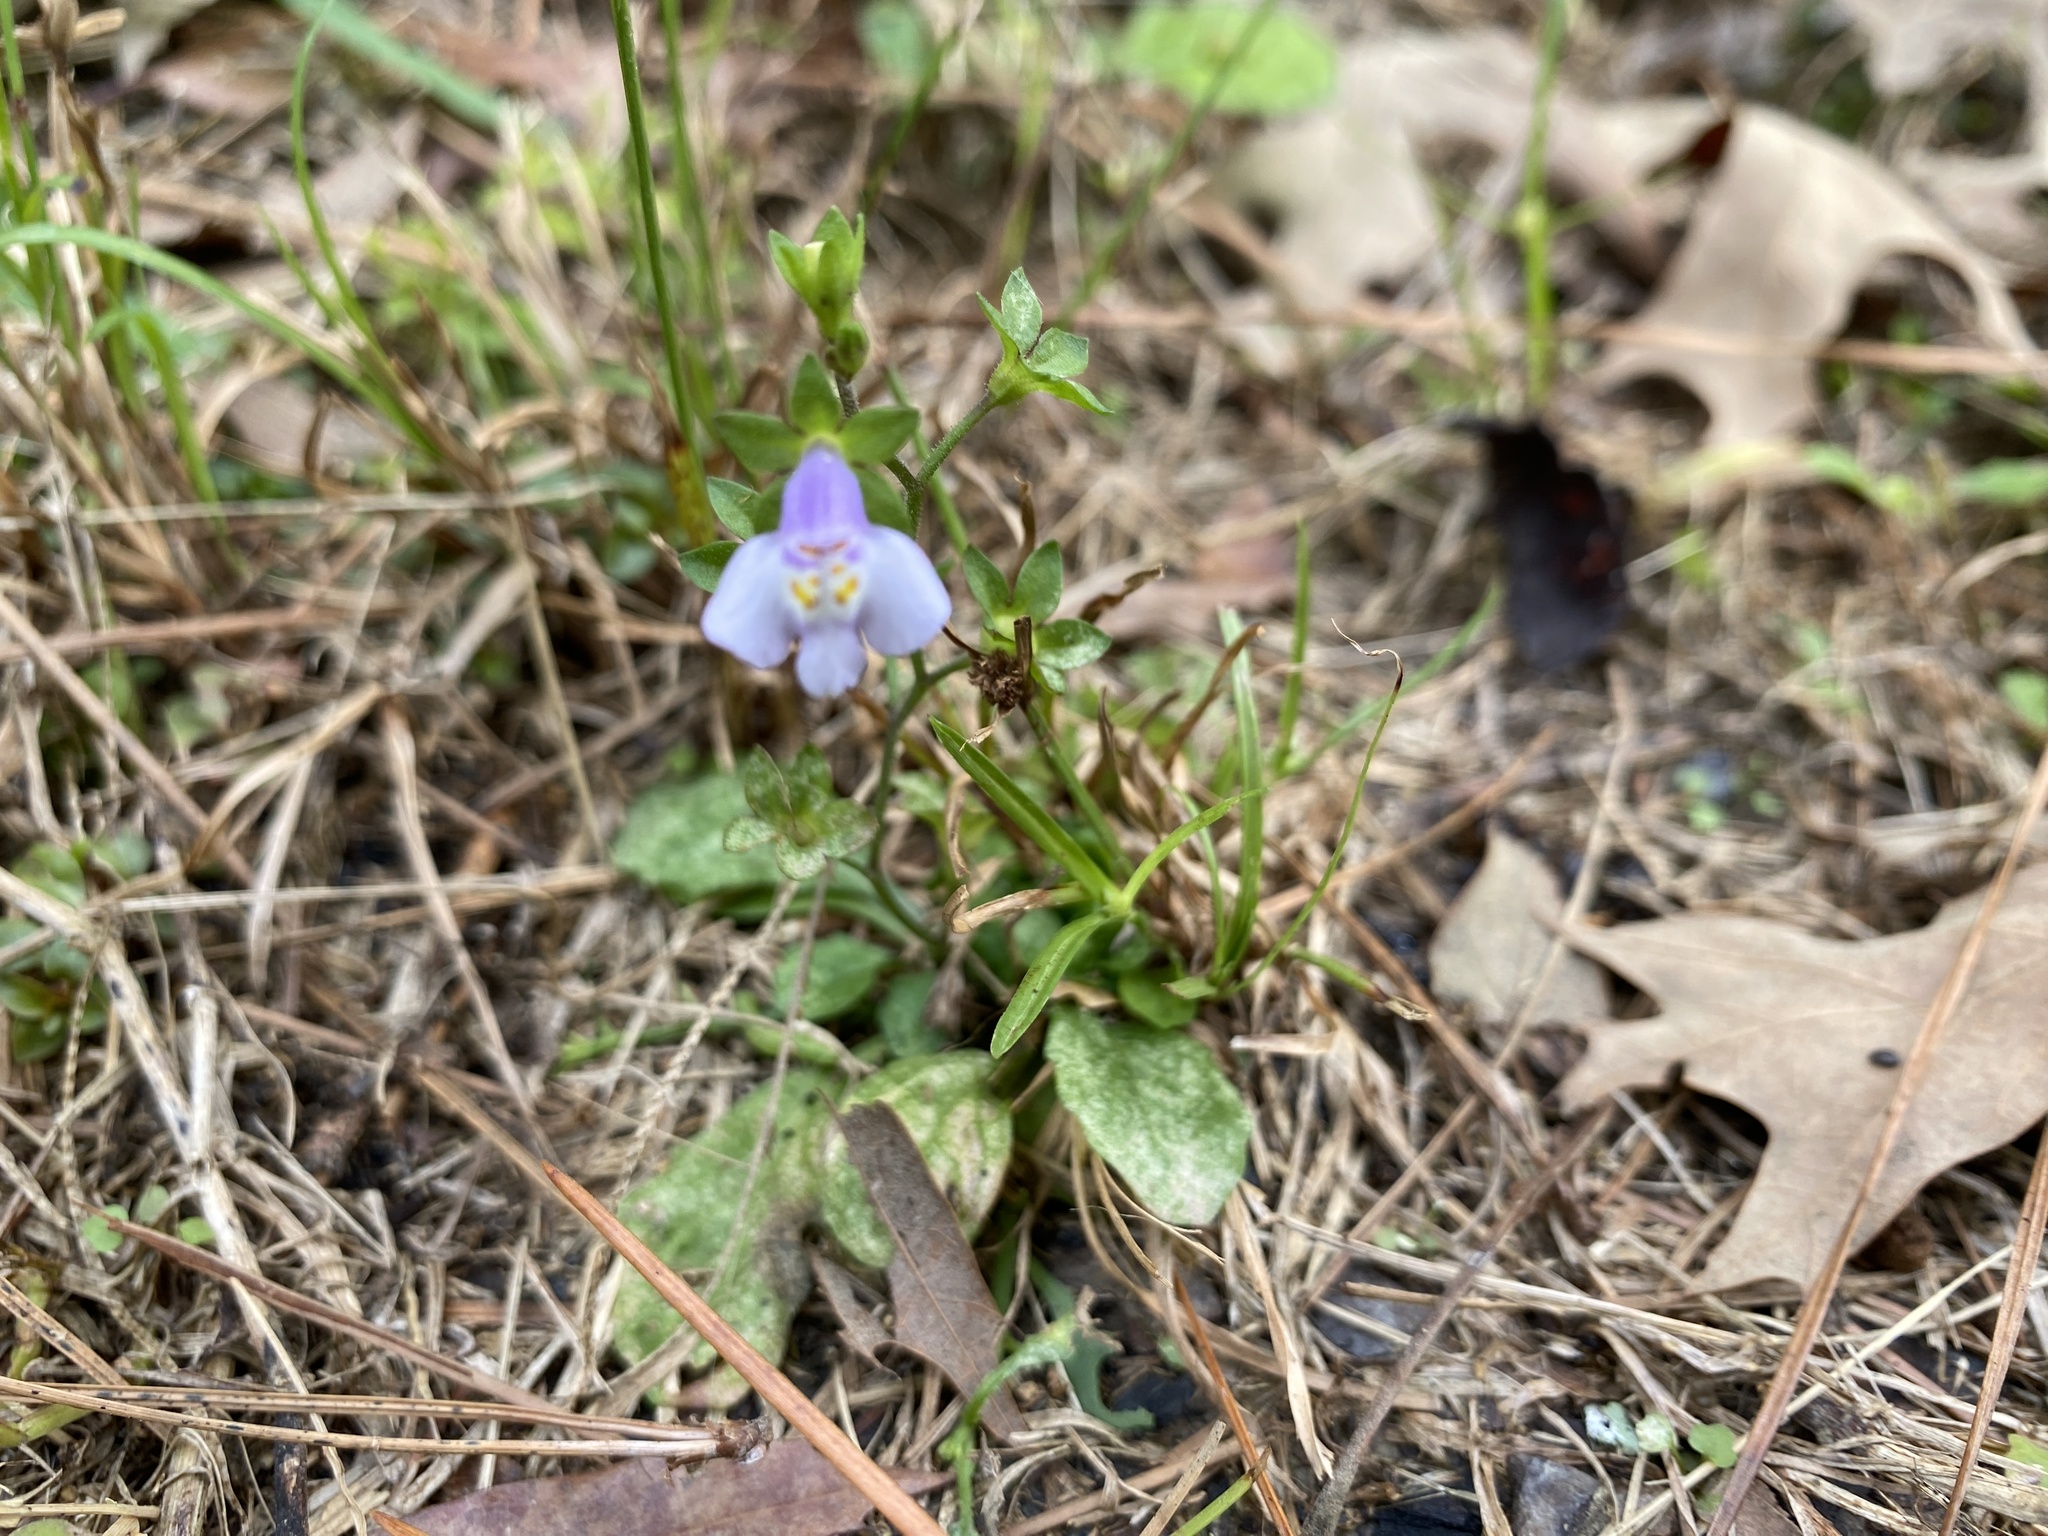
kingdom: Plantae
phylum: Tracheophyta
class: Magnoliopsida
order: Lamiales
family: Mazaceae
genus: Mazus
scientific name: Mazus pumilus
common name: Japanese mazus
